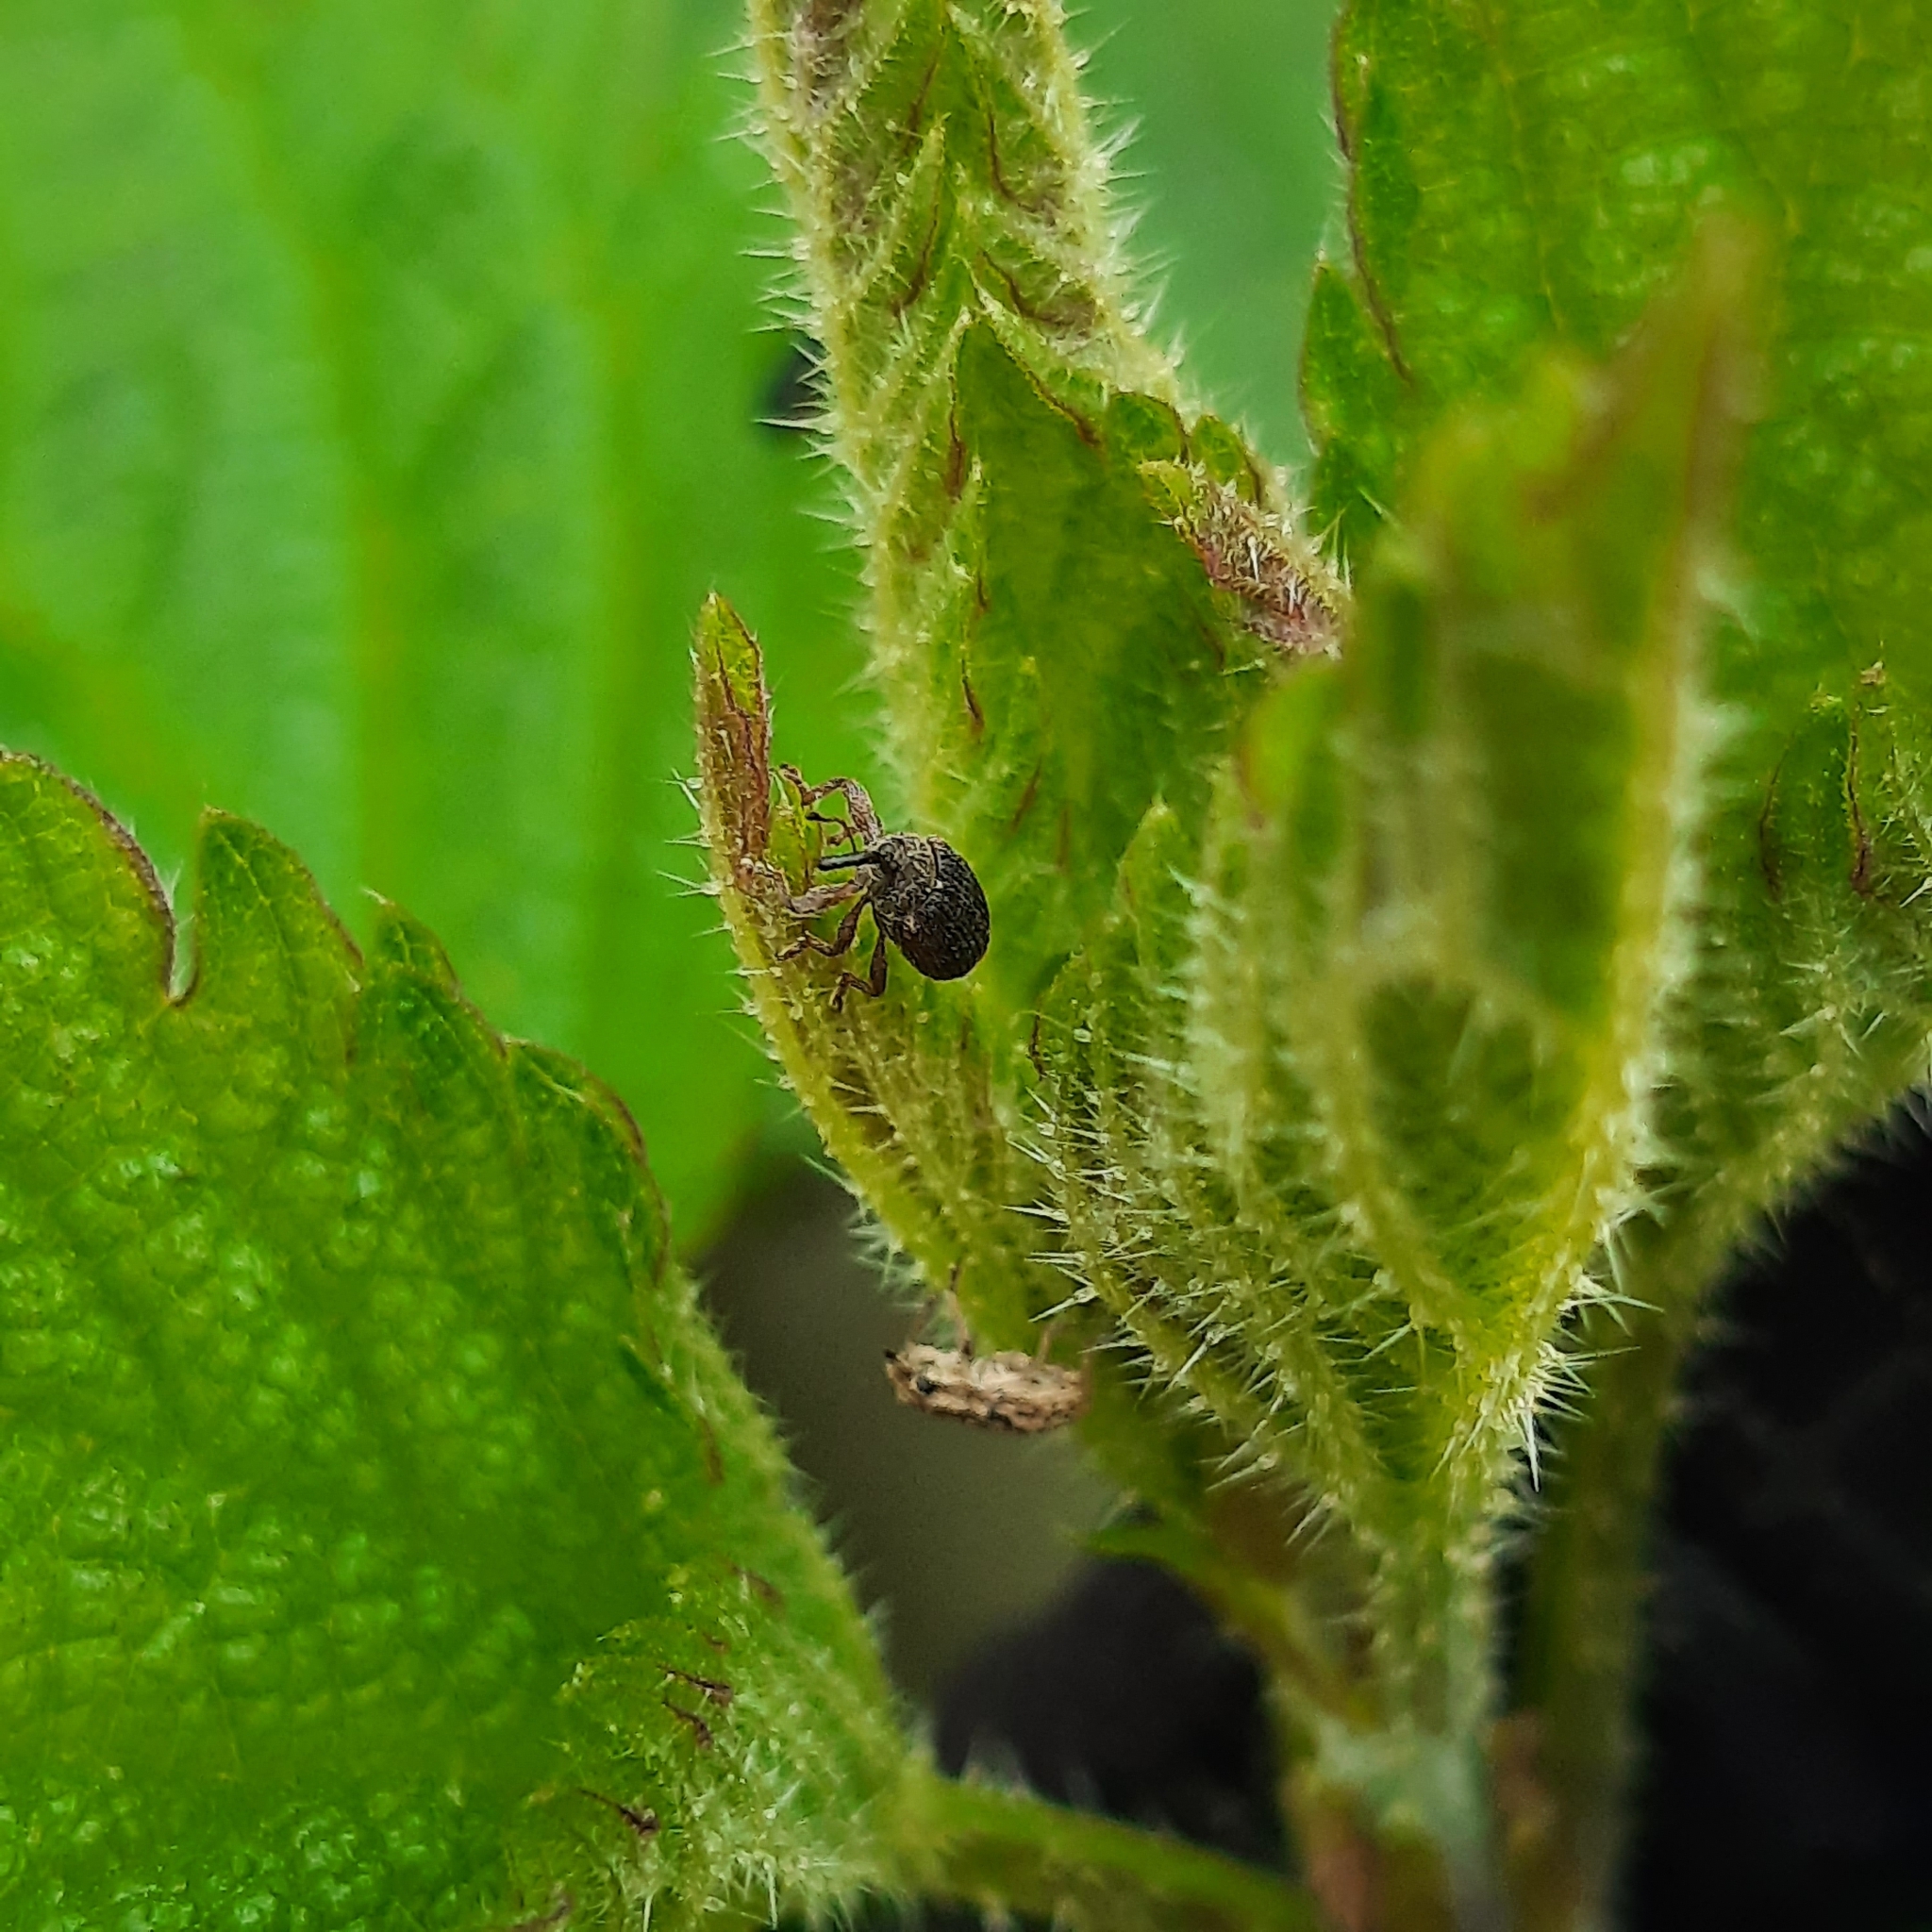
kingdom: Animalia
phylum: Arthropoda
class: Insecta
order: Coleoptera
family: Curculionidae
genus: Bradybatus
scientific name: Bradybatus kellneri
